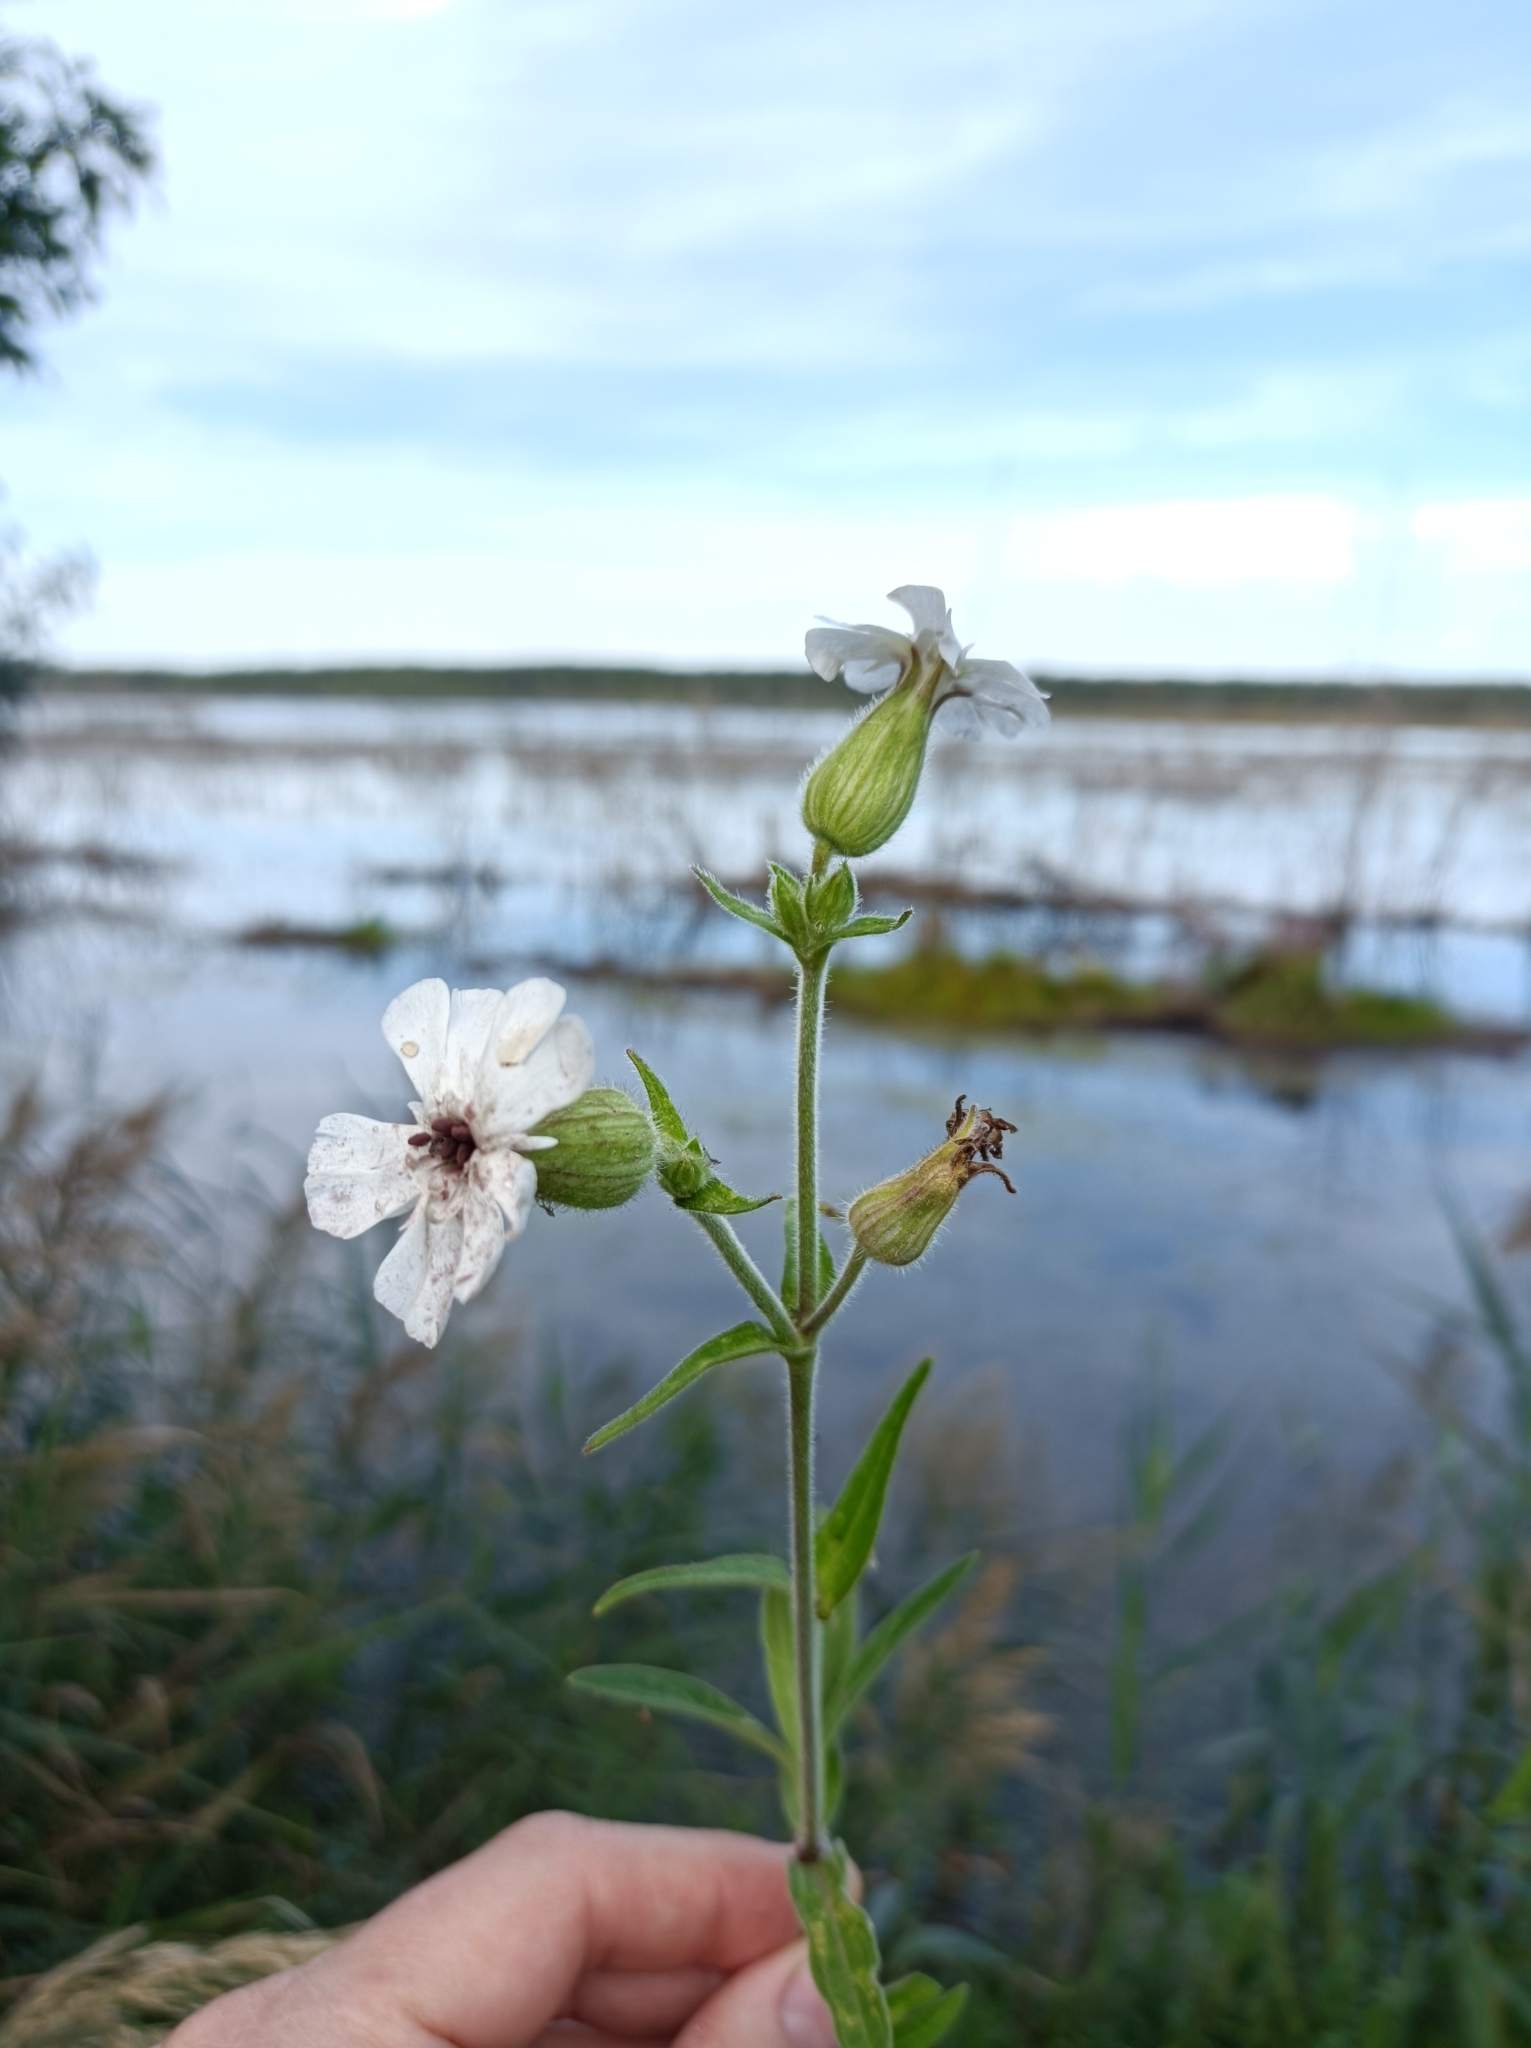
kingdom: Plantae
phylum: Tracheophyta
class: Magnoliopsida
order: Caryophyllales
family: Caryophyllaceae
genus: Silene
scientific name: Silene latifolia
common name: White campion
